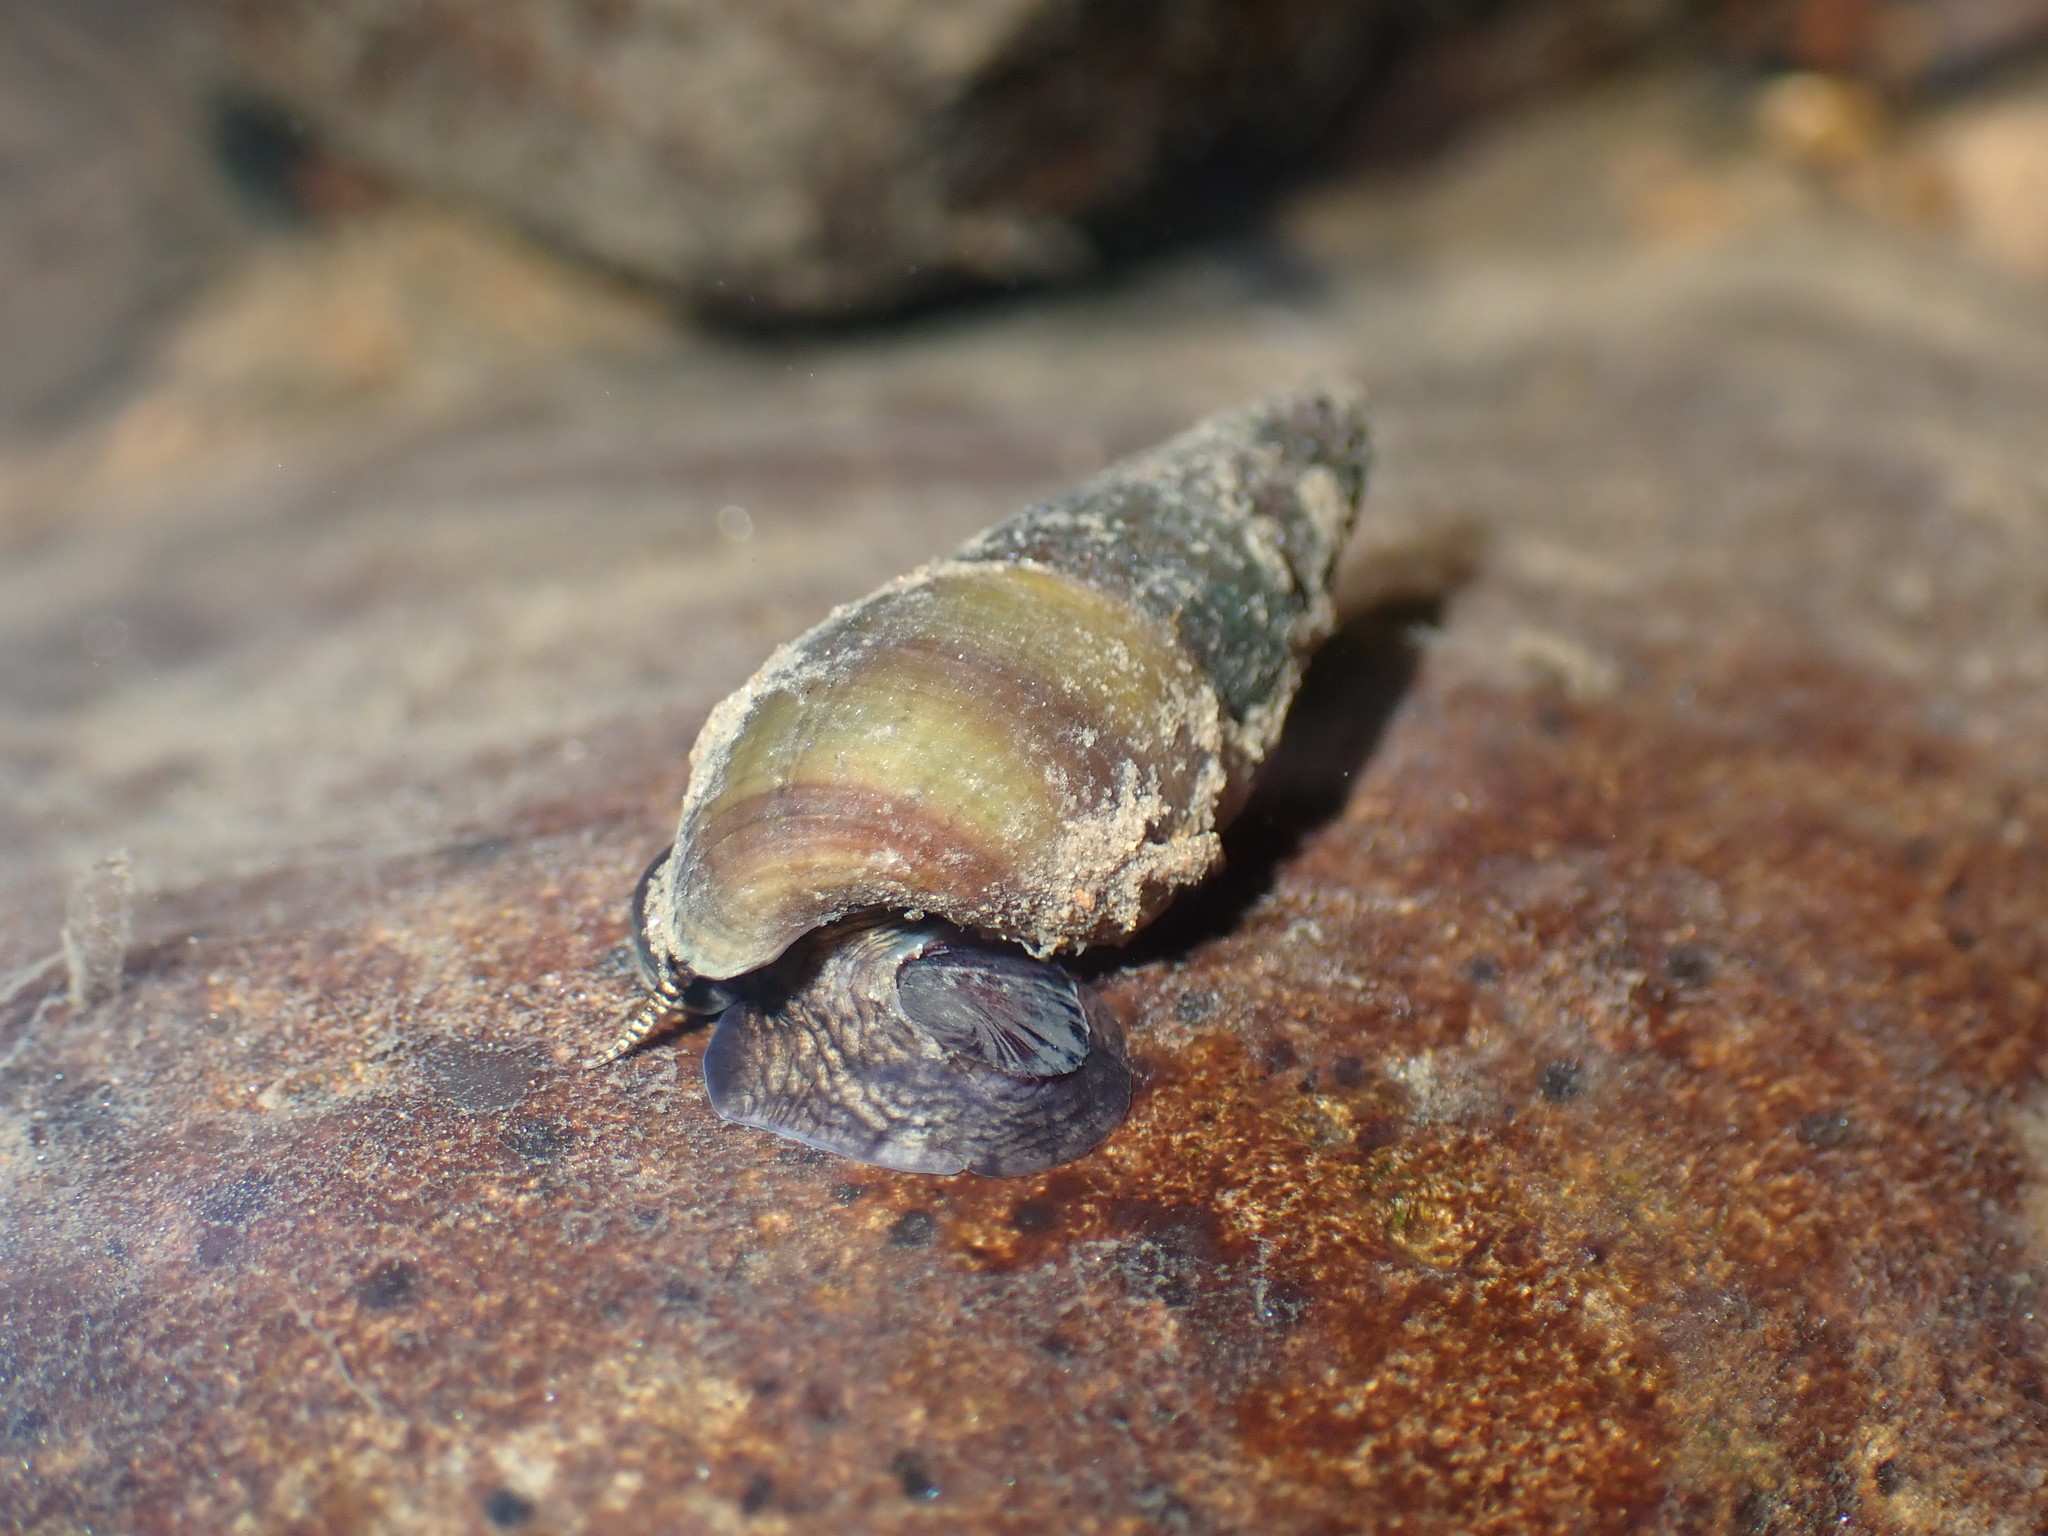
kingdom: Animalia
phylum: Mollusca
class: Gastropoda
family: Semisulcospiridae
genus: Juga
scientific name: Juga plicifera
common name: Pleated juga
